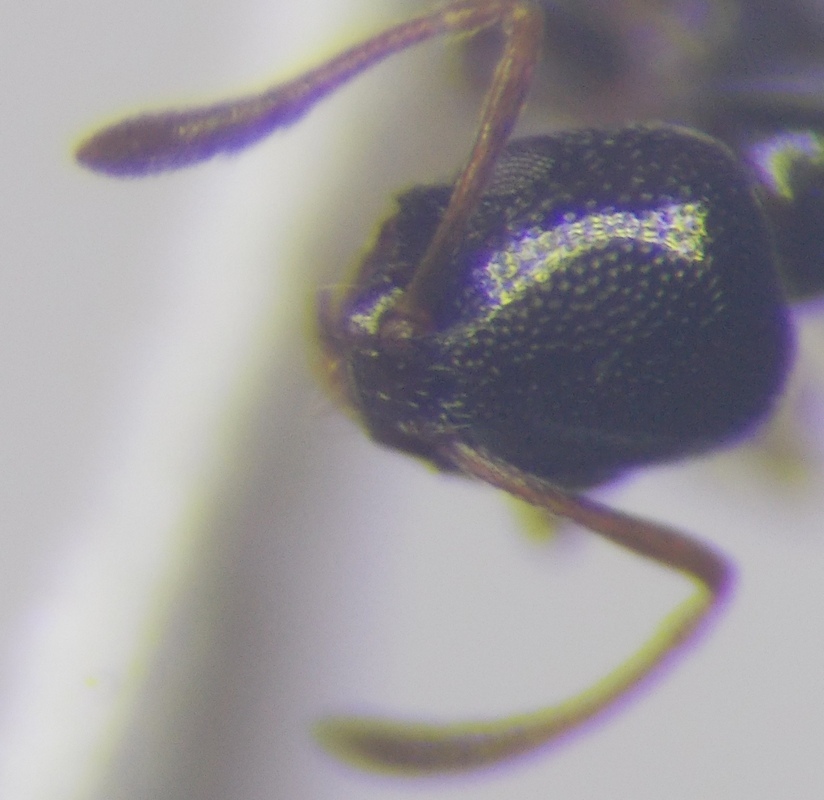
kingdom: Animalia
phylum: Arthropoda
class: Insecta
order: Hymenoptera
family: Formicidae
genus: Cardiocondyla
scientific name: Cardiocondyla ulianini
